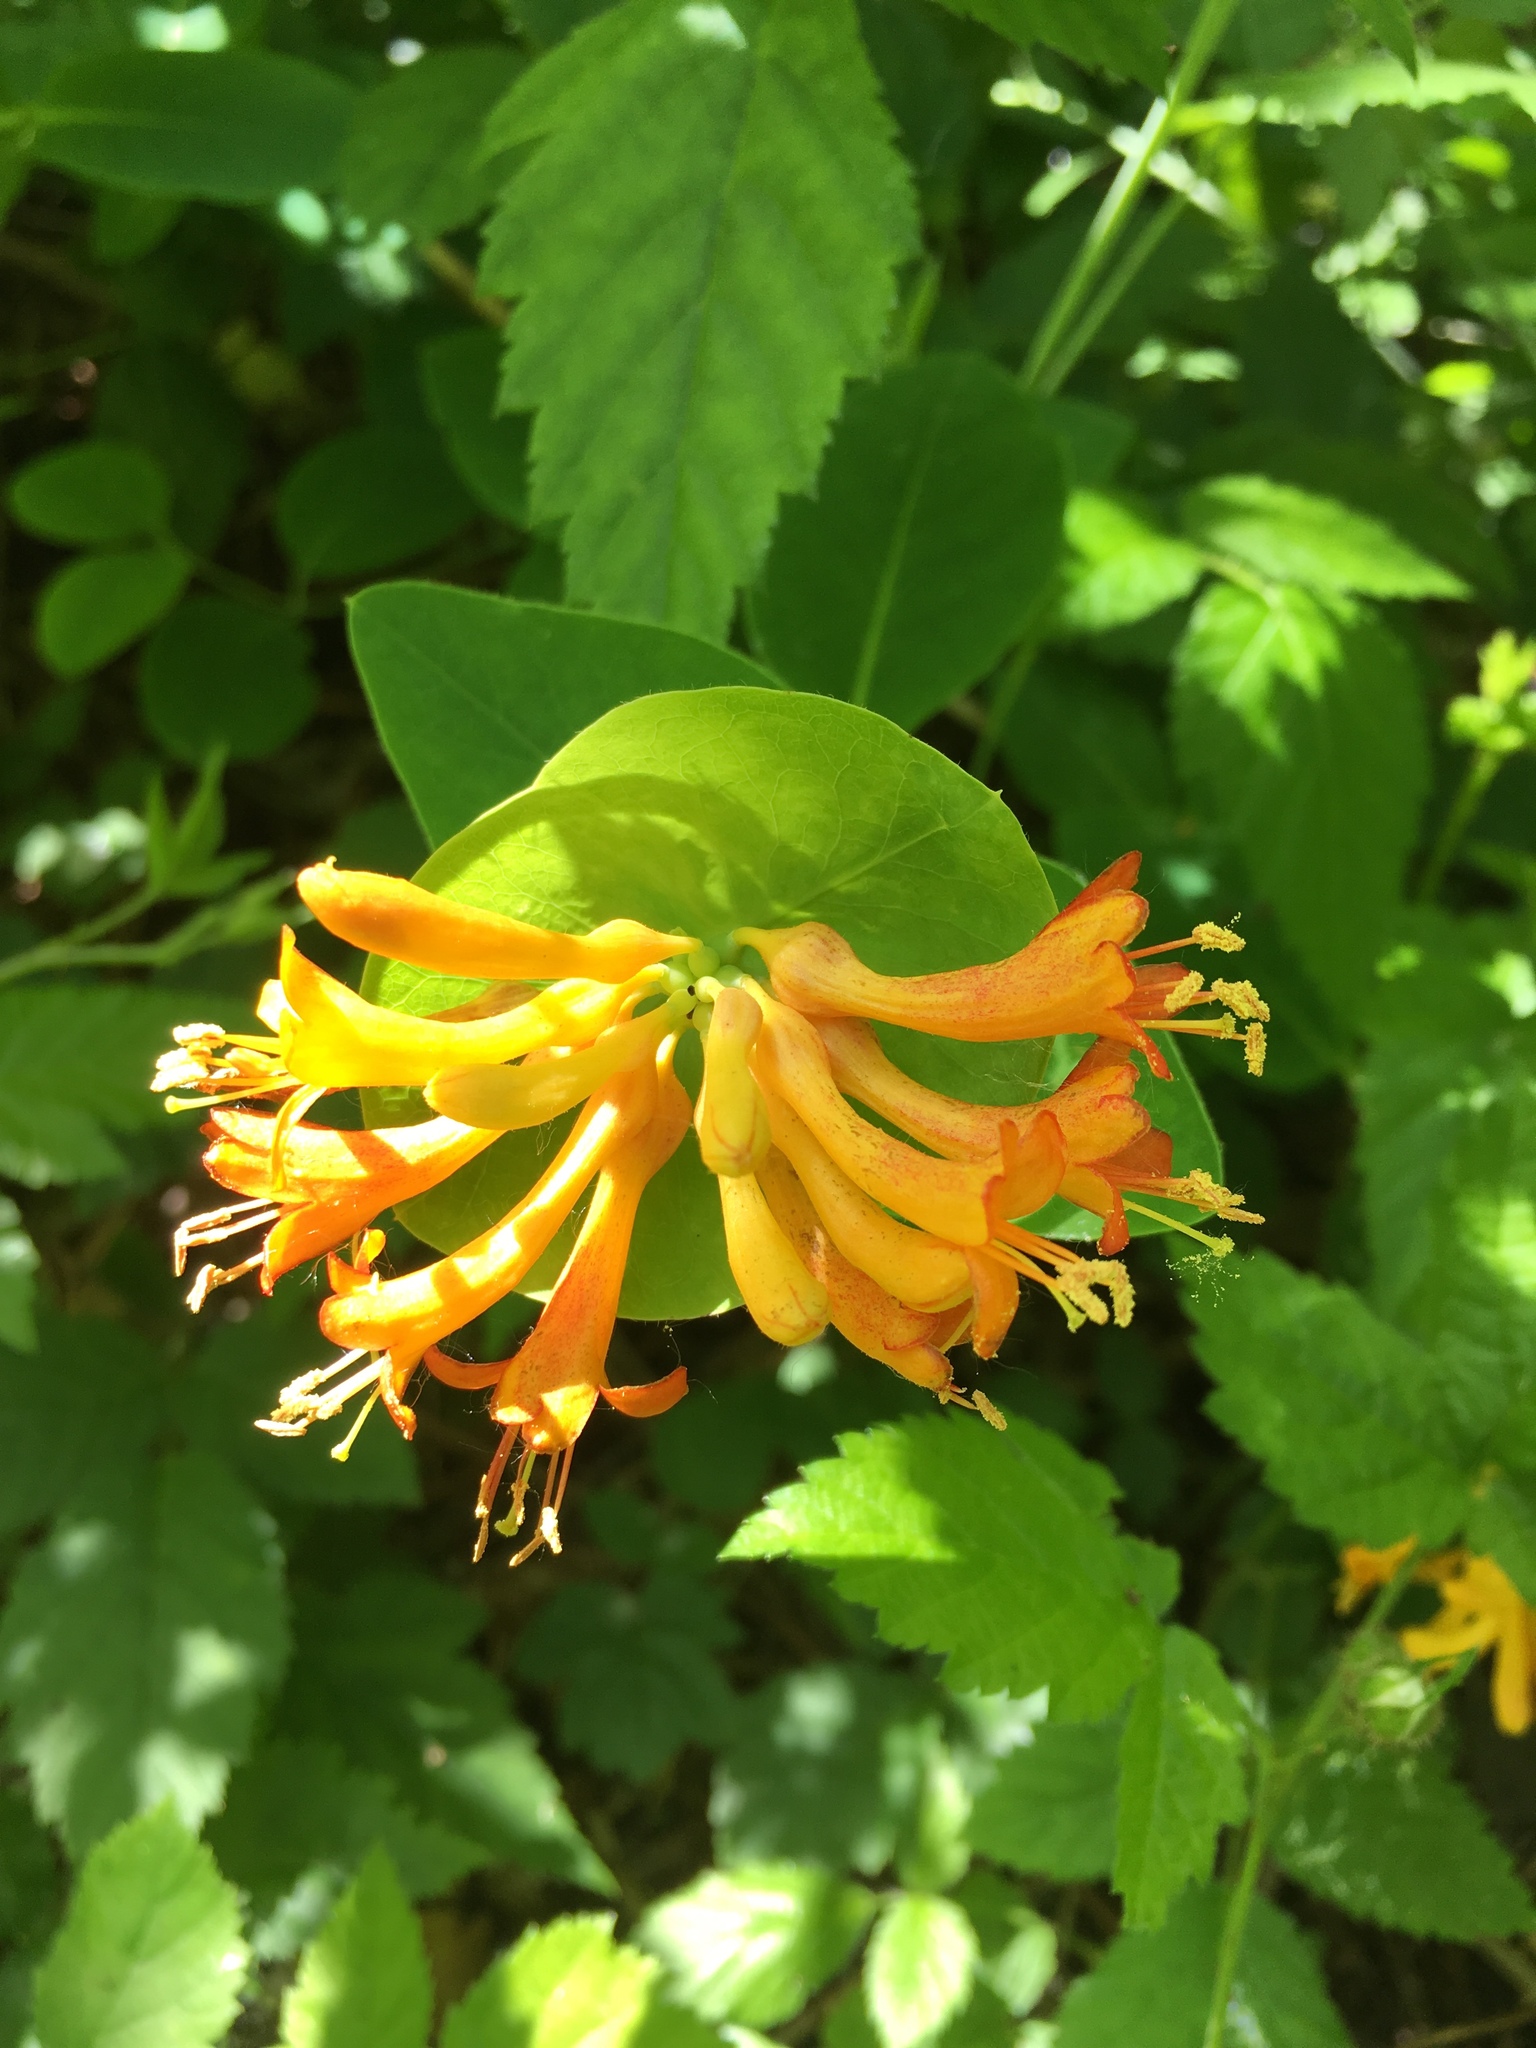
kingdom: Plantae
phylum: Tracheophyta
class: Magnoliopsida
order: Dipsacales
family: Caprifoliaceae
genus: Lonicera
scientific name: Lonicera ciliosa
